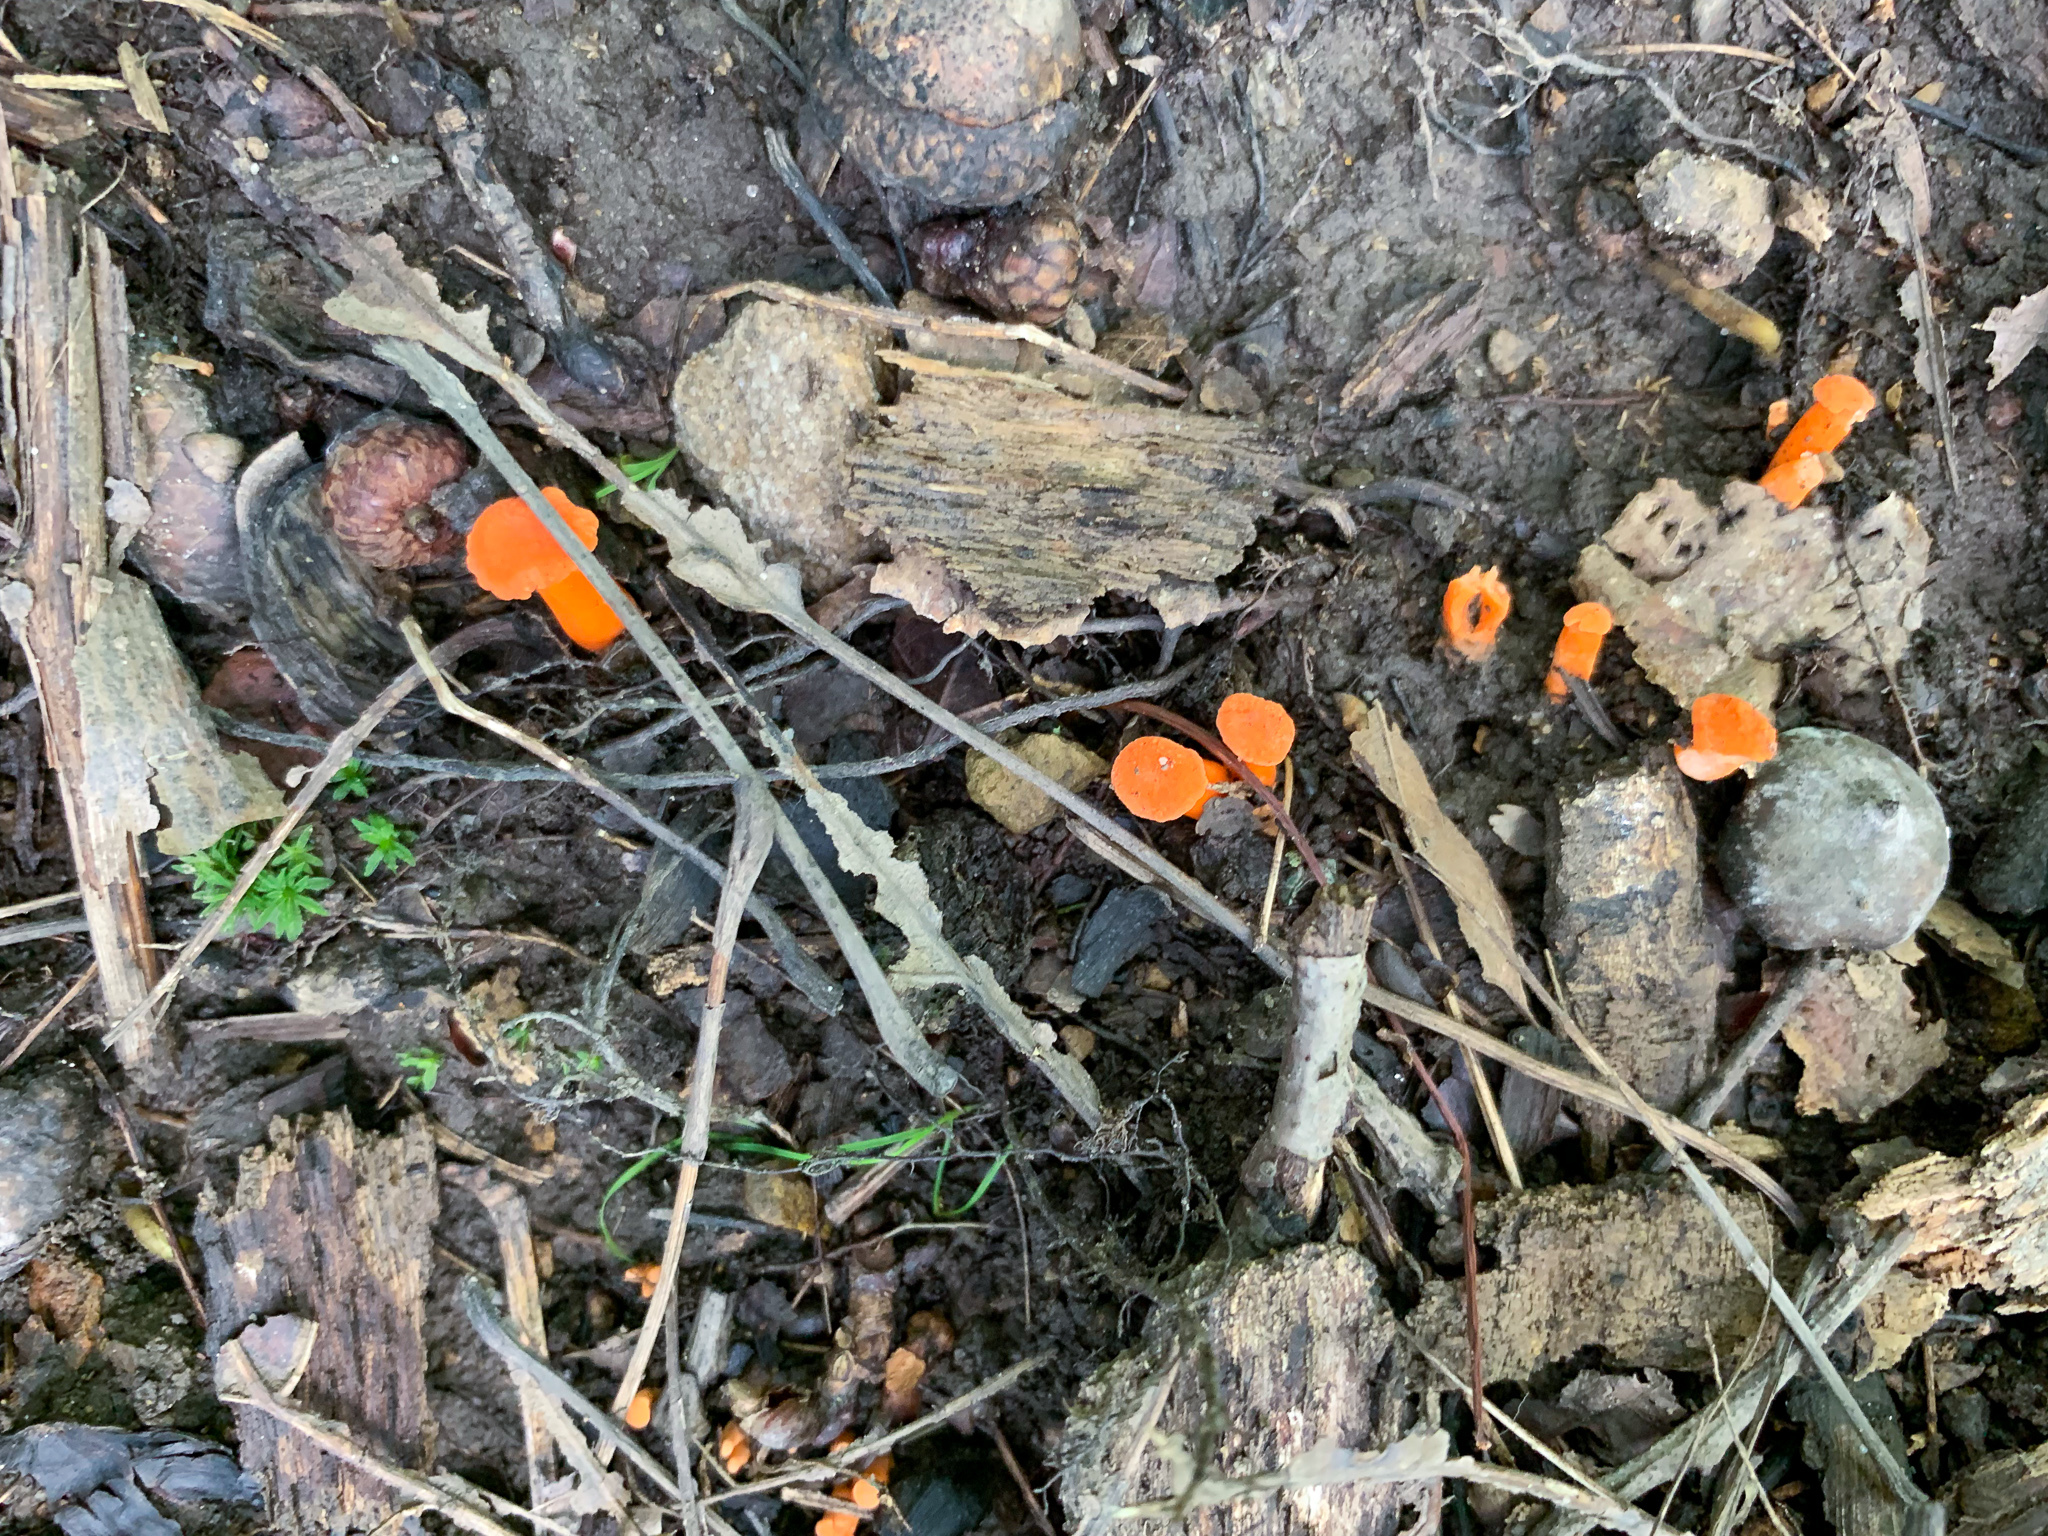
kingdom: Fungi
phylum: Basidiomycota
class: Agaricomycetes
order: Cantharellales
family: Hydnaceae
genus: Cantharellus
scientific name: Cantharellus cinnabarinus
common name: Cinnabar chanterelle
